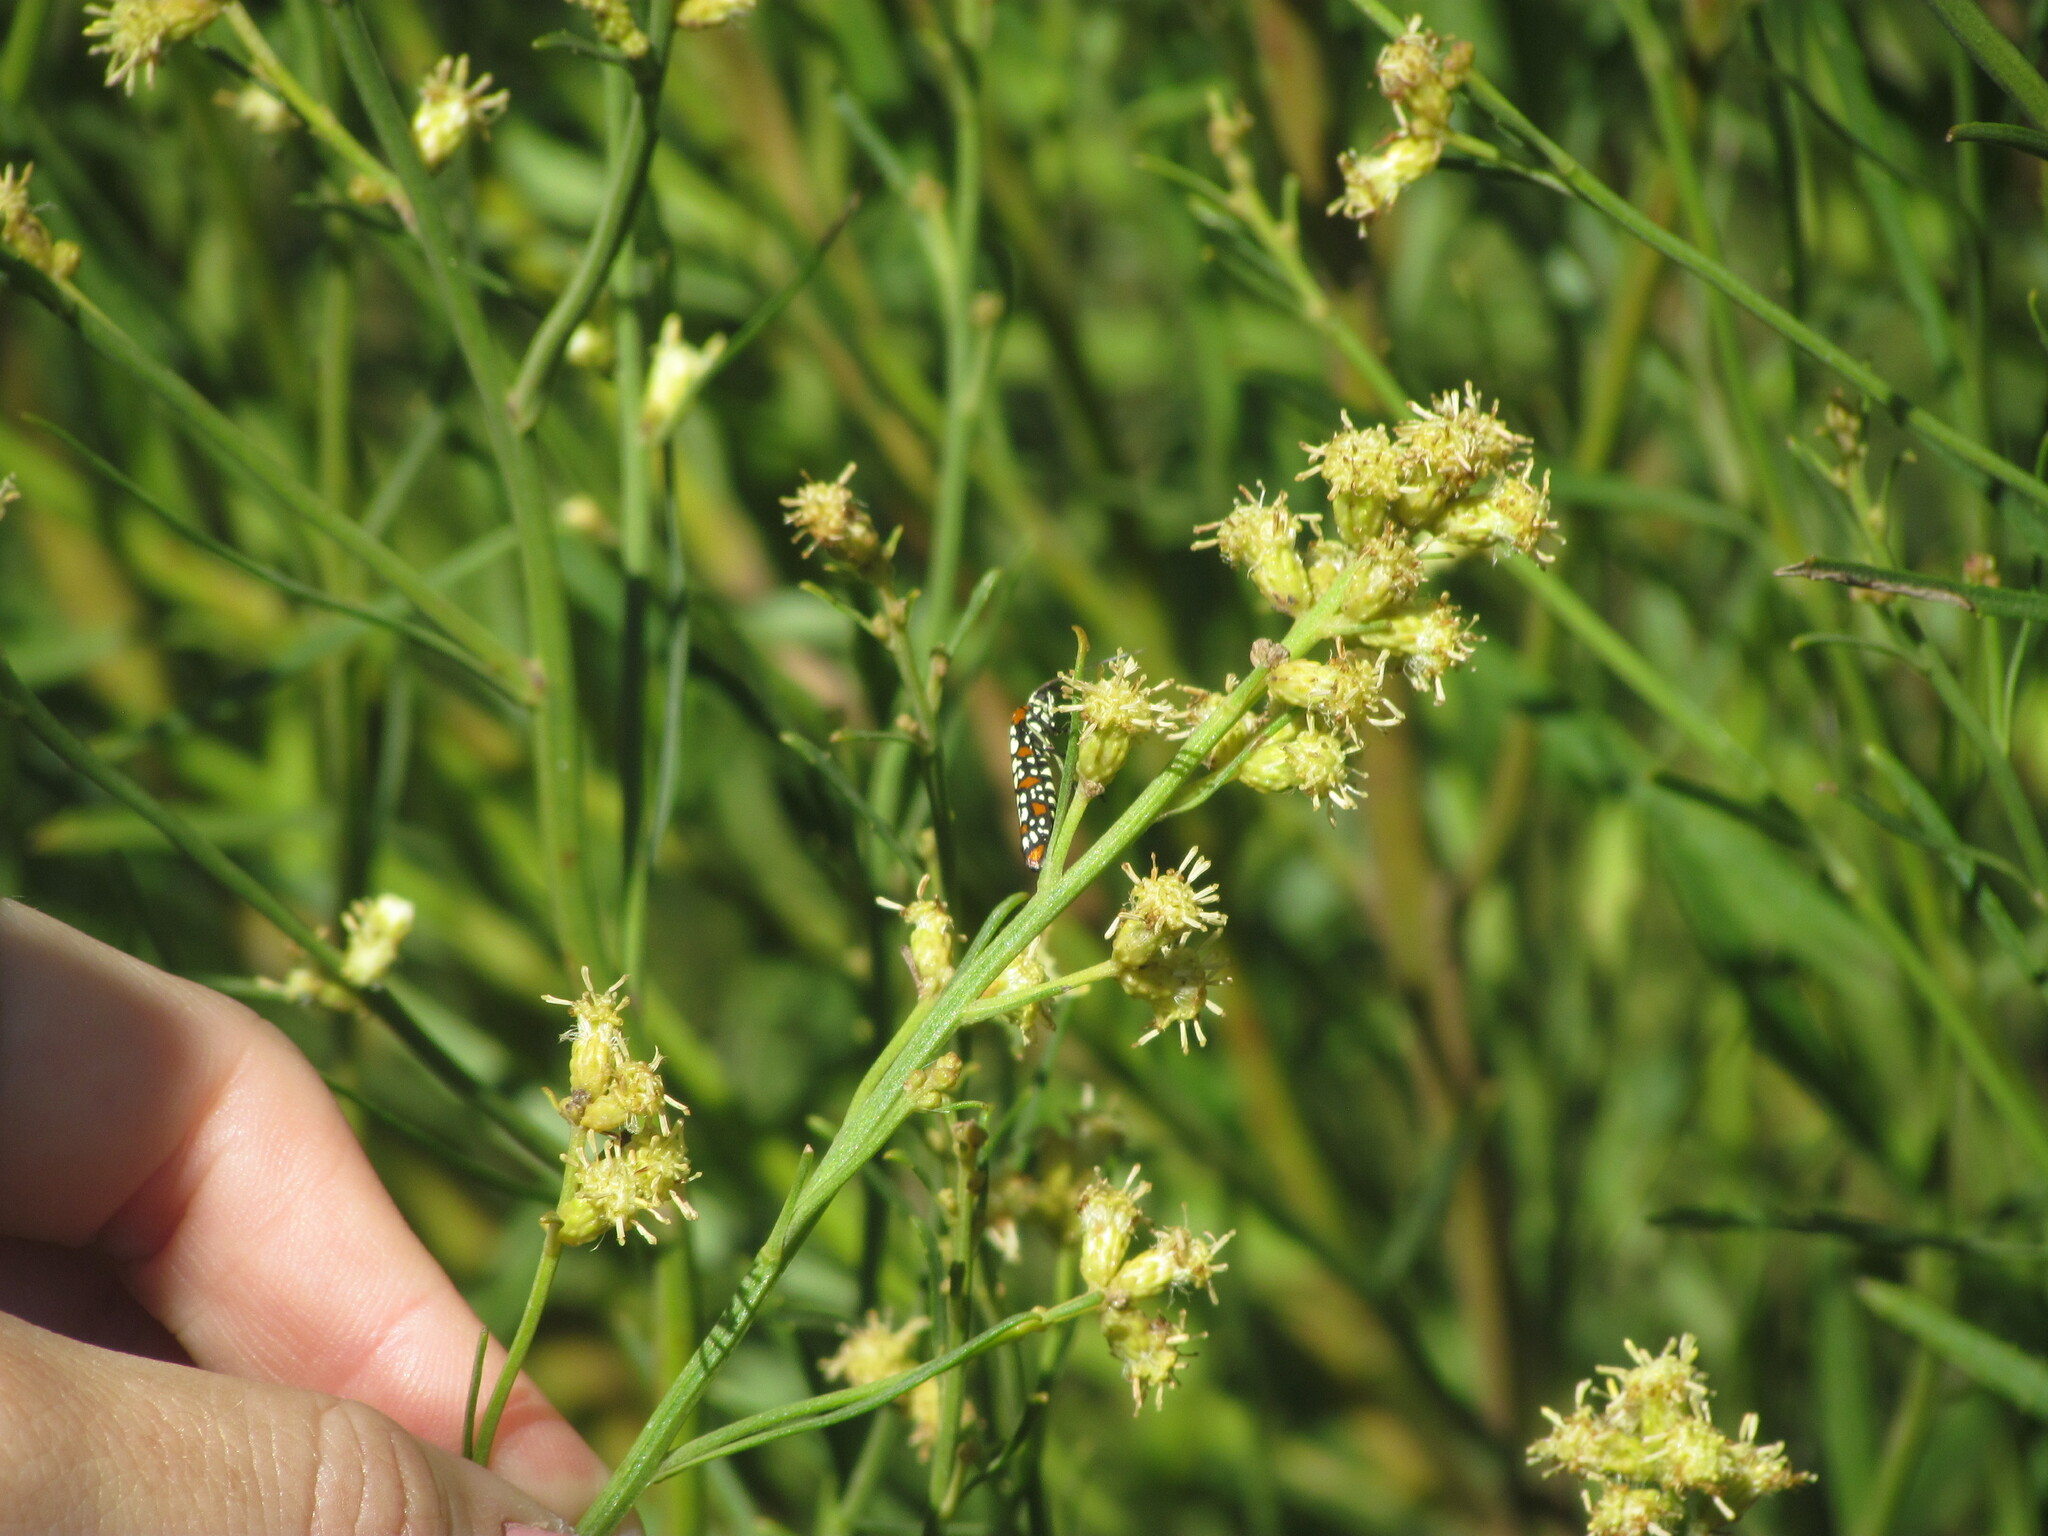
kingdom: Animalia
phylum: Arthropoda
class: Insecta
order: Lepidoptera
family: Attevidae
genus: Atteva
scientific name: Atteva punctella
